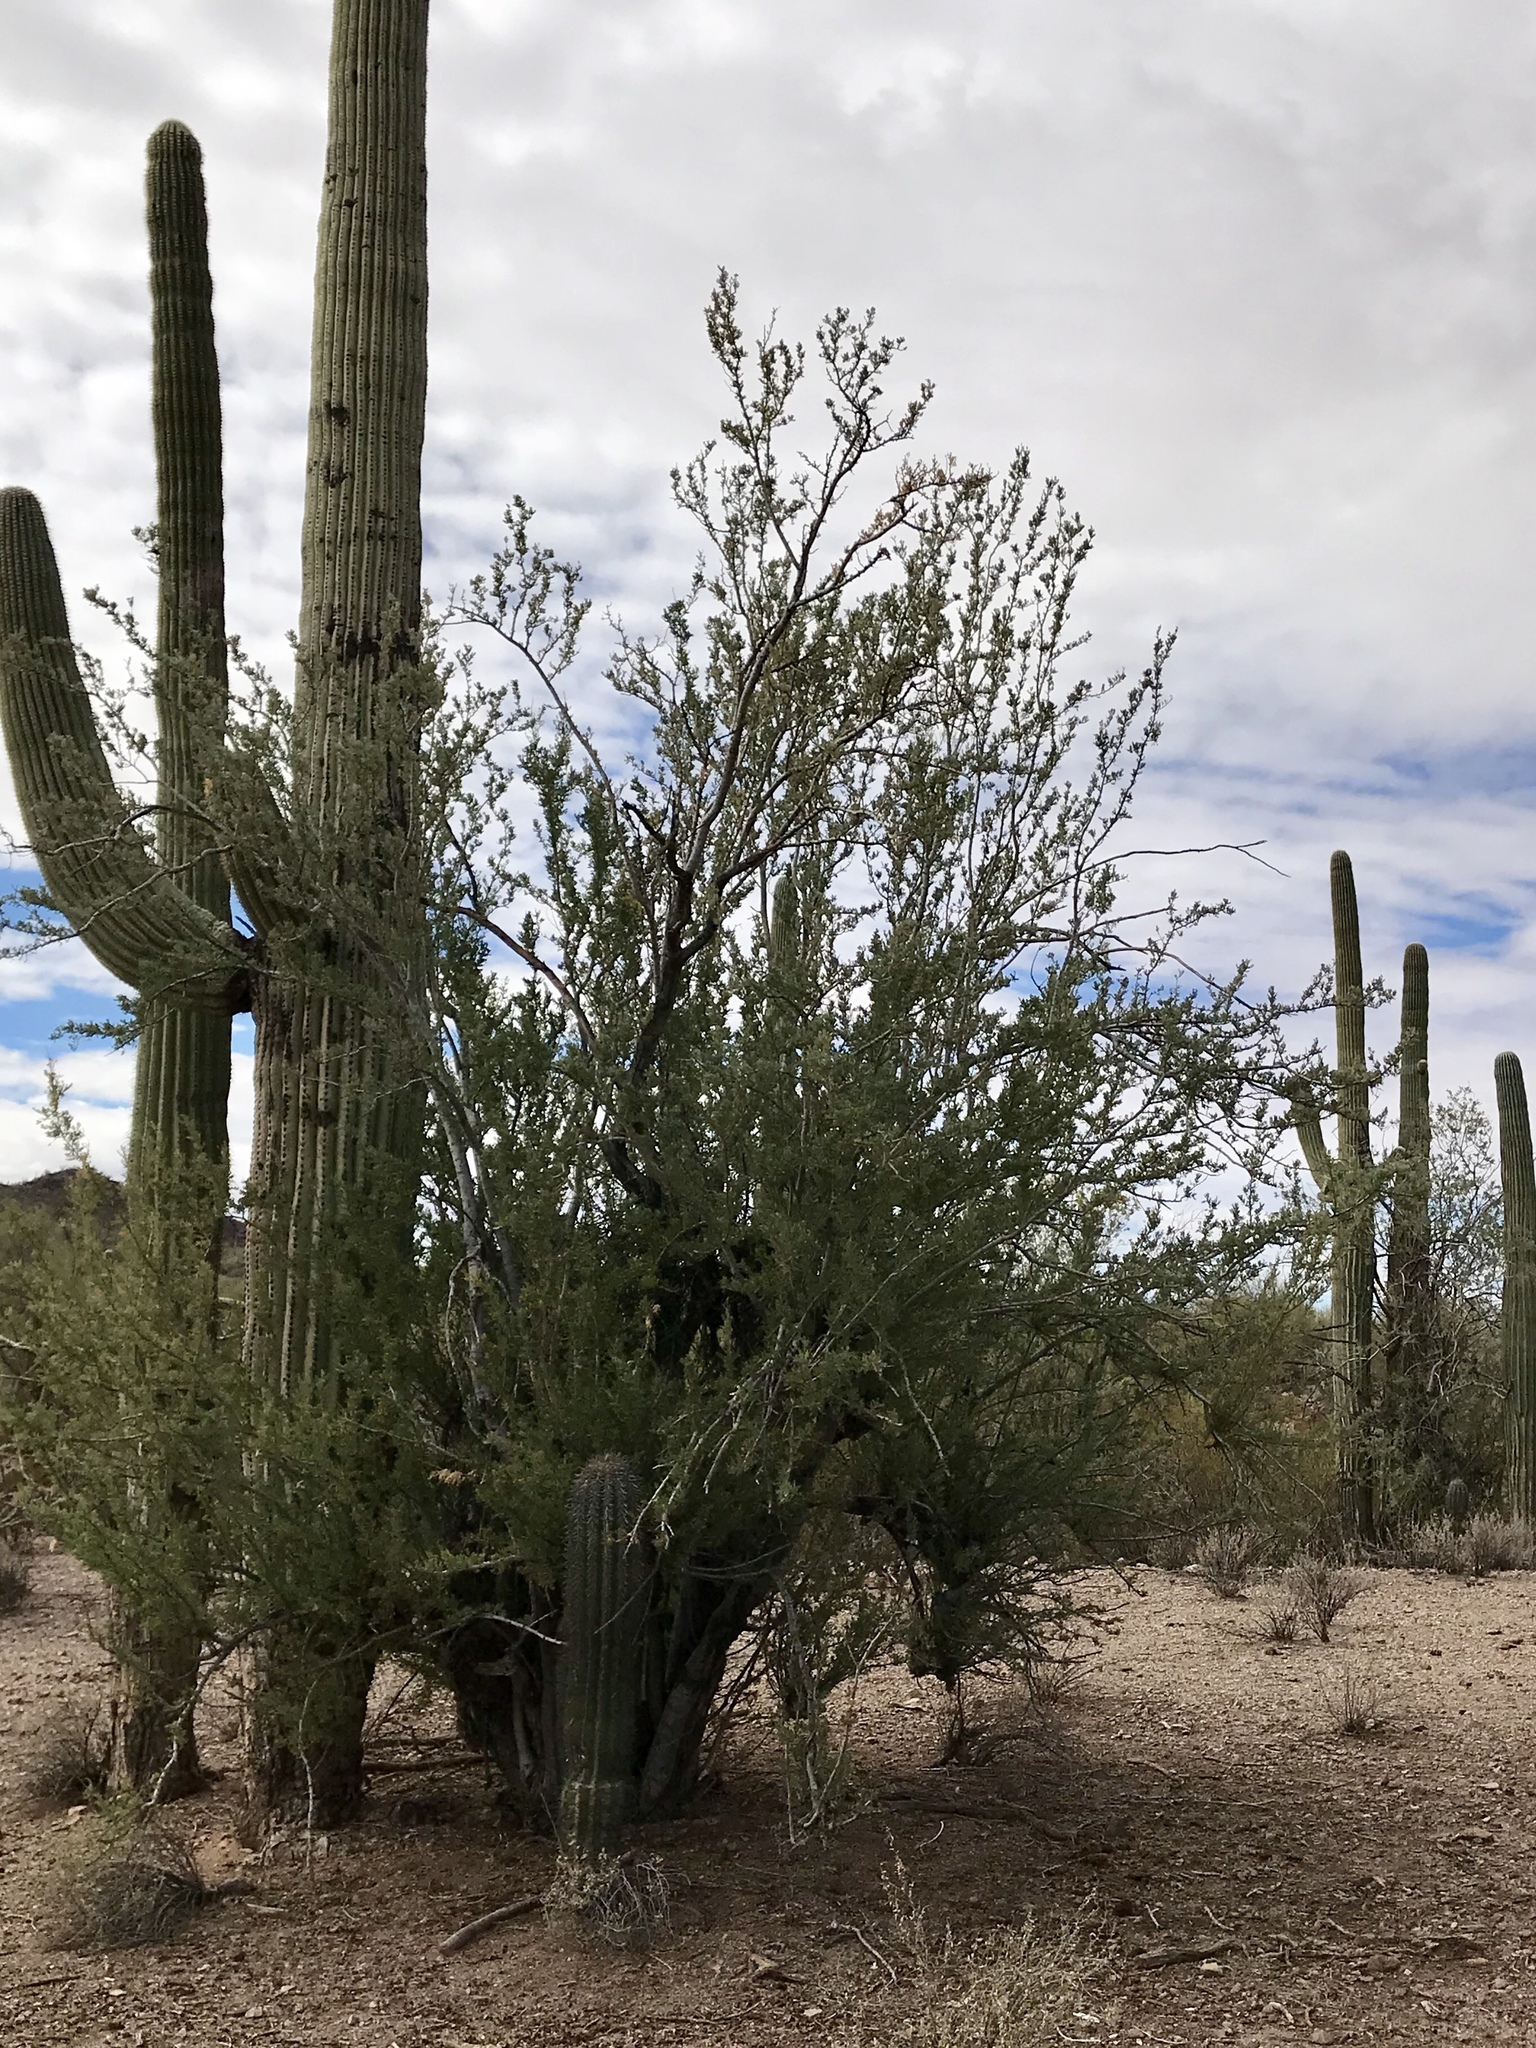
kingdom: Plantae
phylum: Tracheophyta
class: Magnoliopsida
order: Fabales
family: Fabaceae
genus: Olneya
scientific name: Olneya tesota
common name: Desert ironwood
